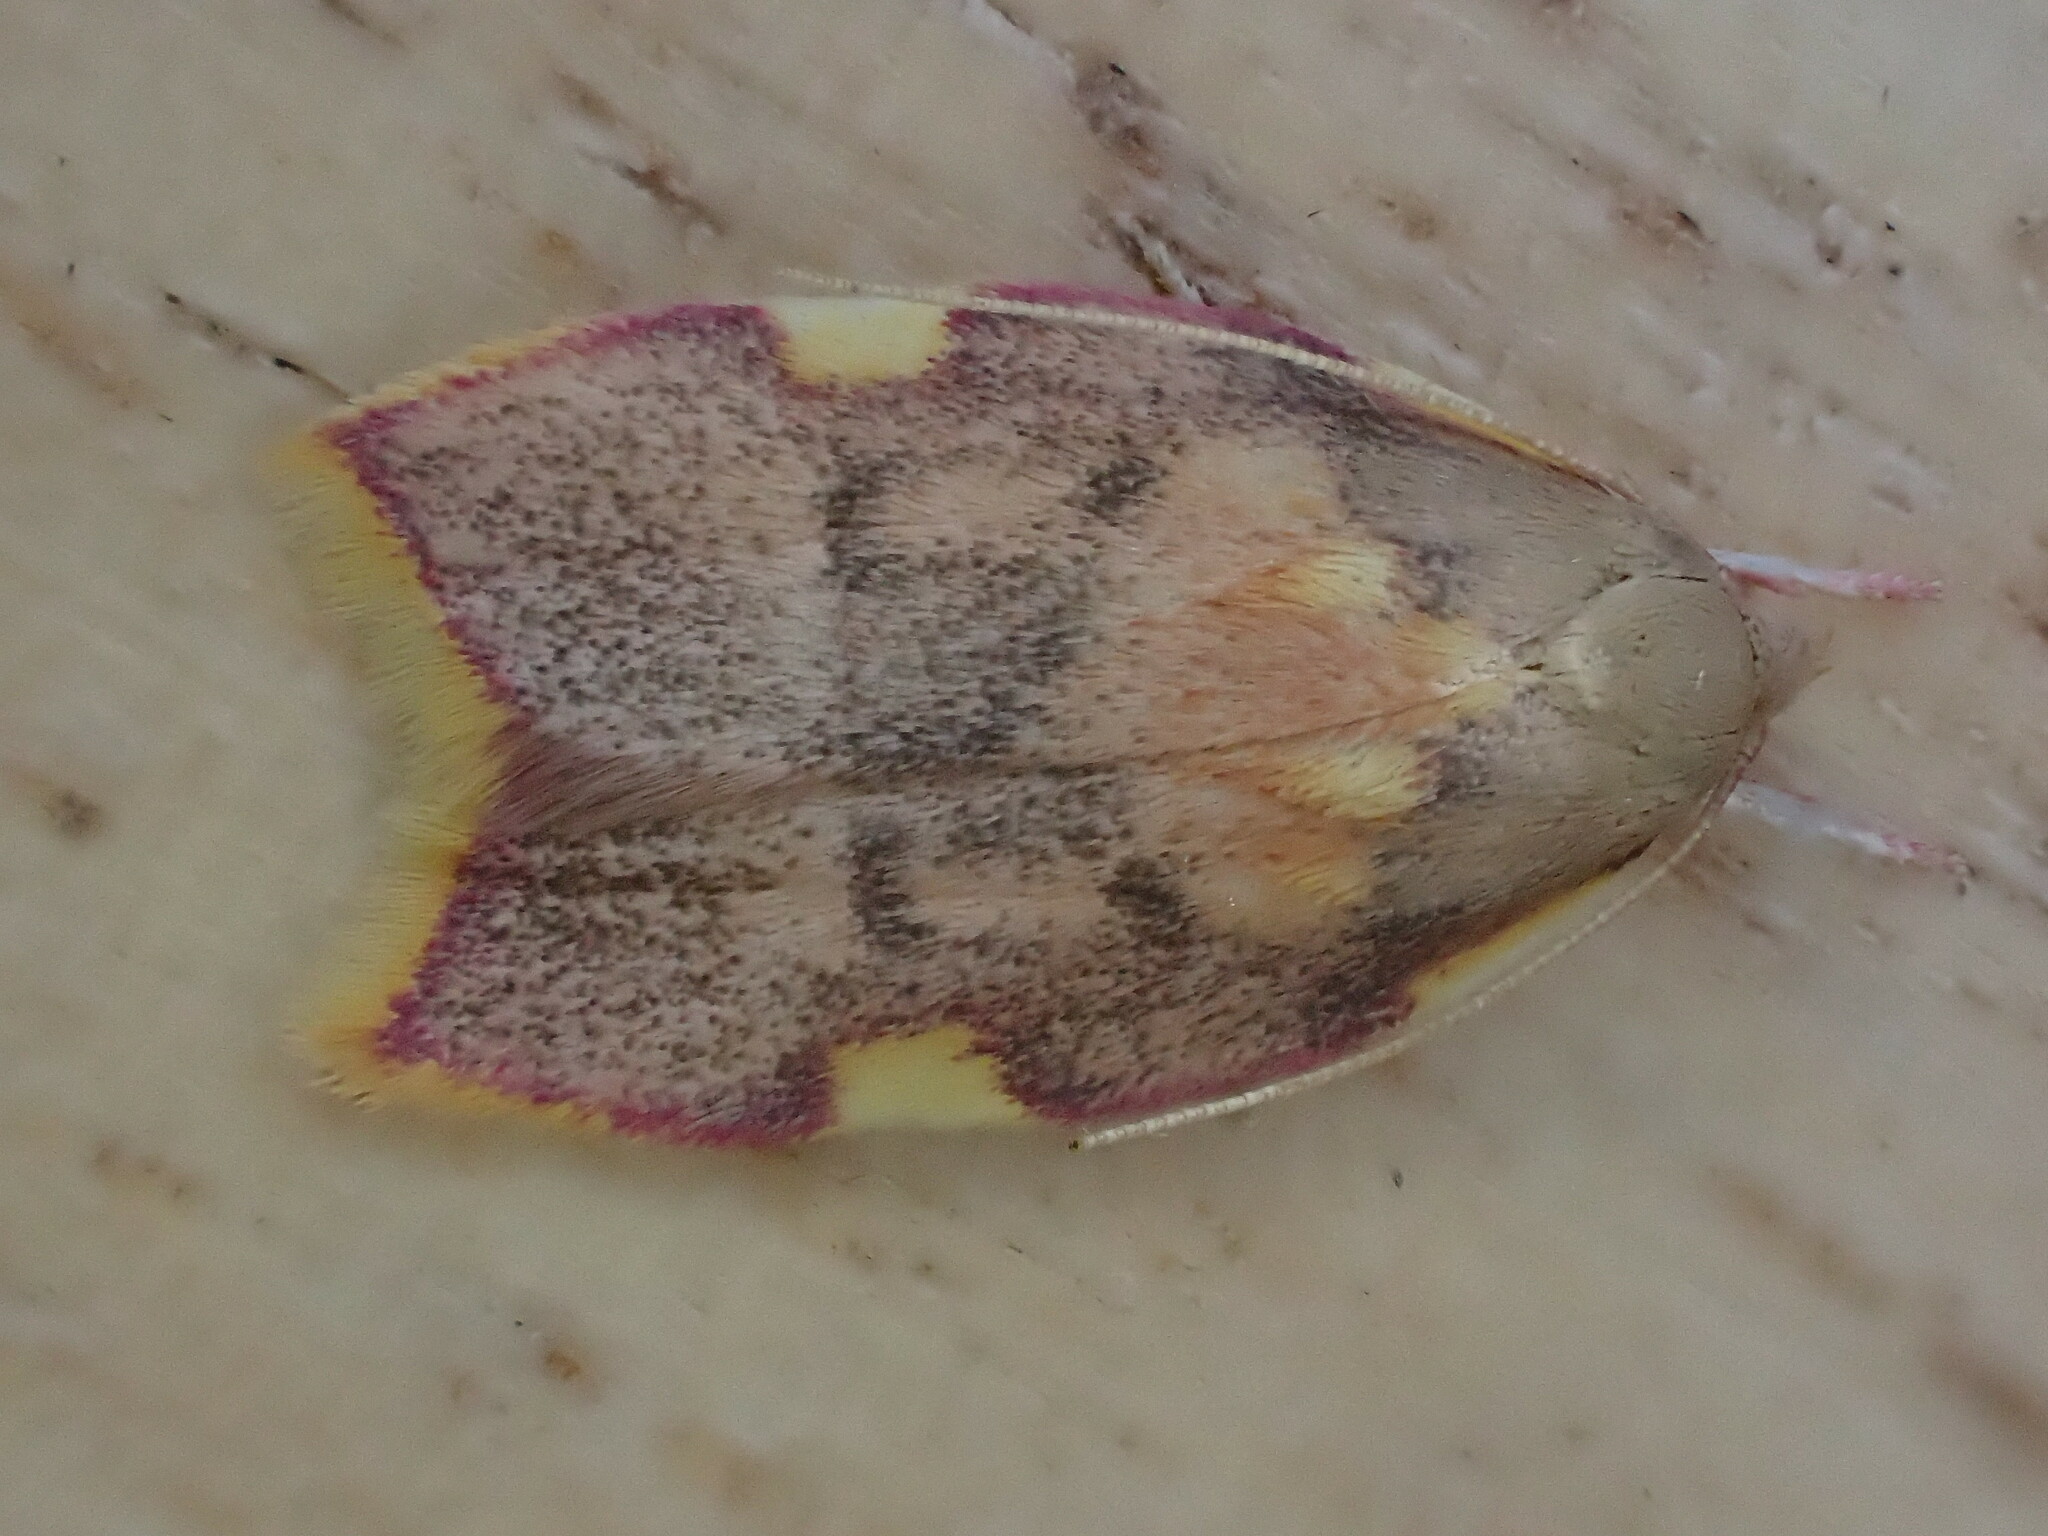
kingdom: Animalia
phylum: Arthropoda
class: Insecta
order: Lepidoptera
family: Peleopodidae
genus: Carcina
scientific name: Carcina quercana
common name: Moth
